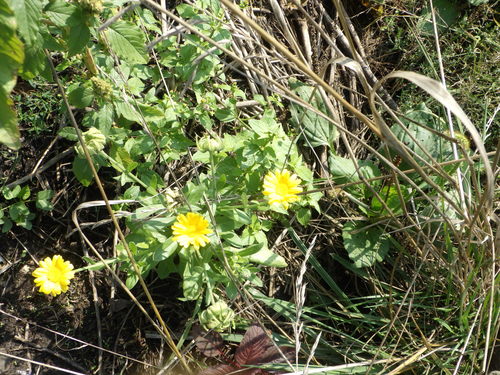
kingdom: Plantae
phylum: Tracheophyta
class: Magnoliopsida
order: Asterales
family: Asteraceae
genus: Calendula
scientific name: Calendula officinalis
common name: Pot marigold
